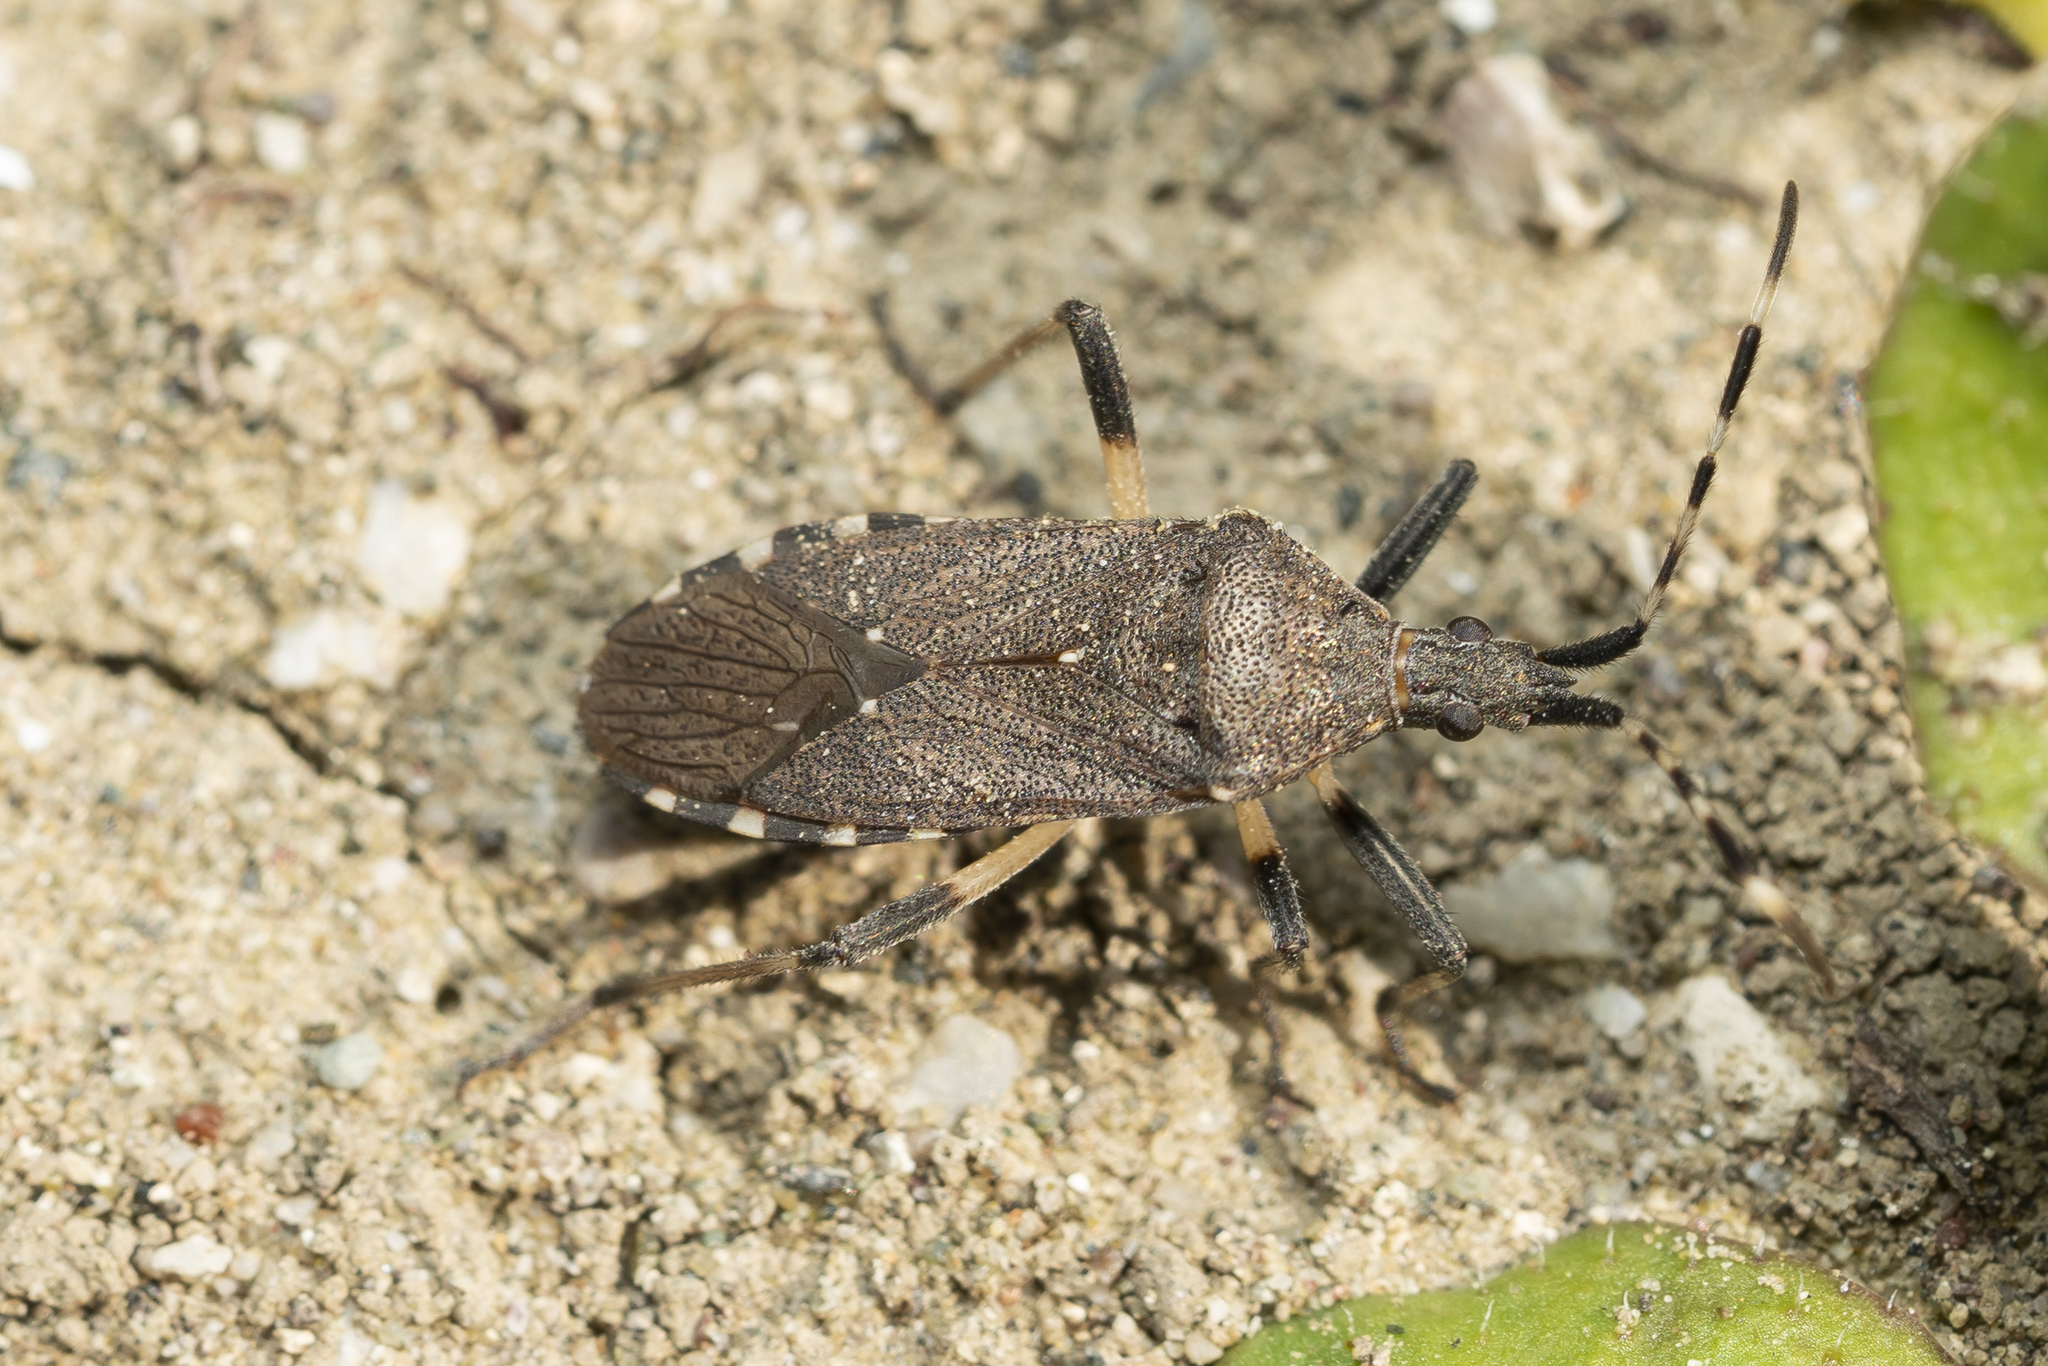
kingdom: Animalia
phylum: Arthropoda
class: Insecta
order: Hemiptera
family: Stenocephalidae
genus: Dicranocephalus
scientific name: Dicranocephalus agilis
